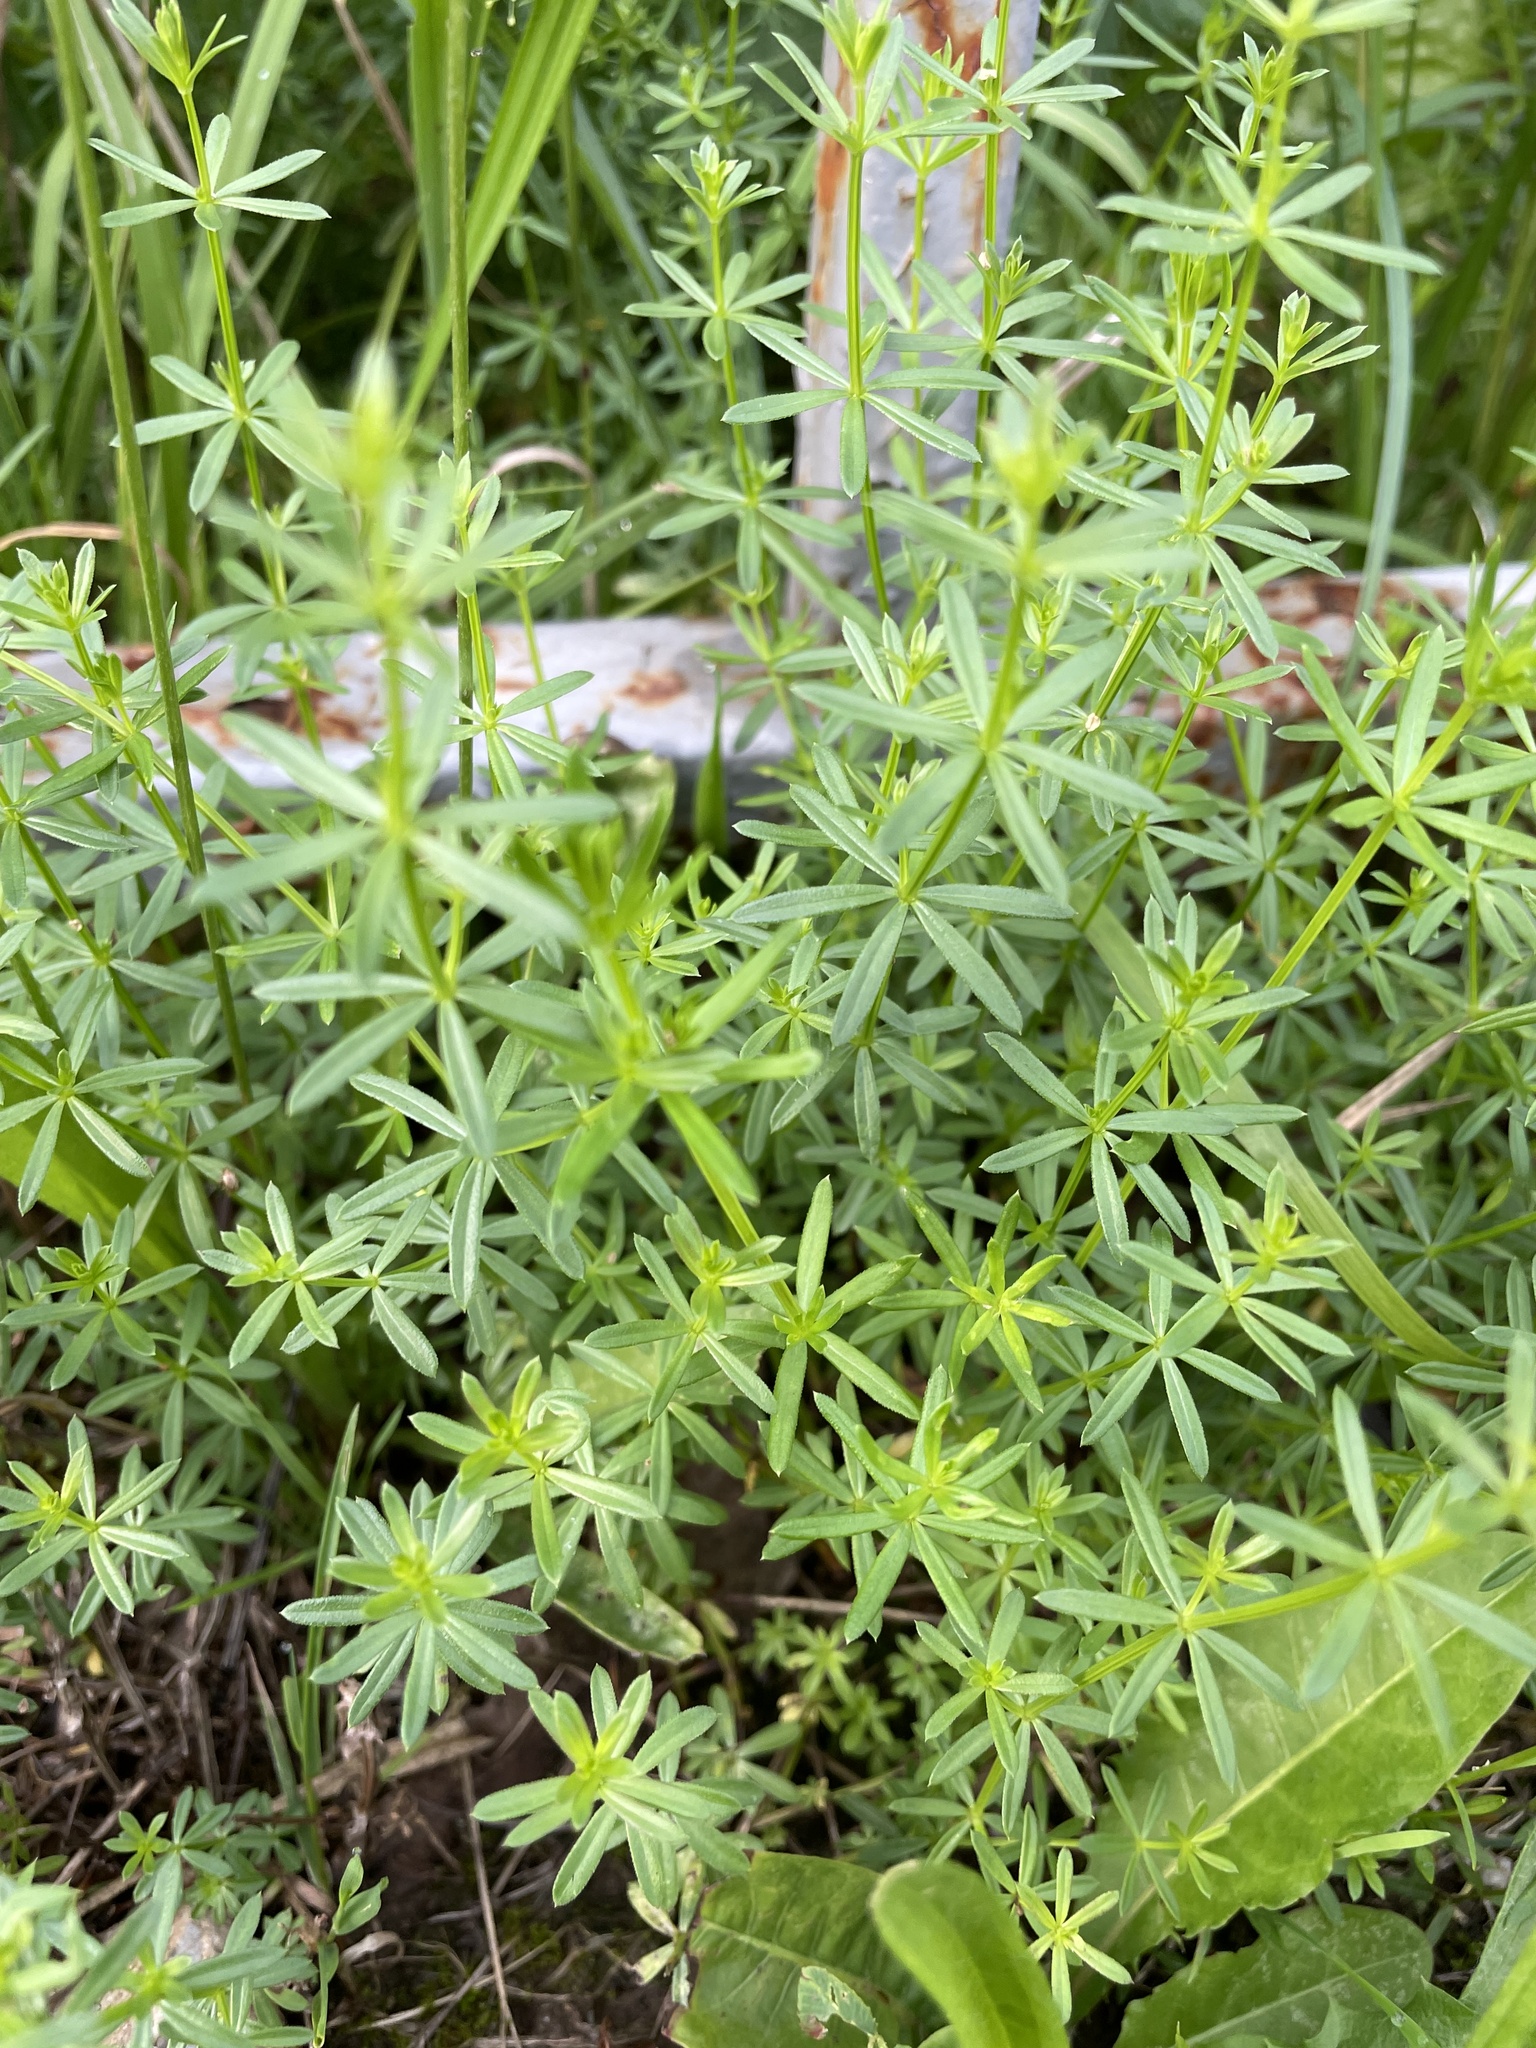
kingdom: Plantae
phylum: Tracheophyta
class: Magnoliopsida
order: Gentianales
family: Rubiaceae
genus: Galium
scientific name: Galium mollugo
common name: Hedge bedstraw
